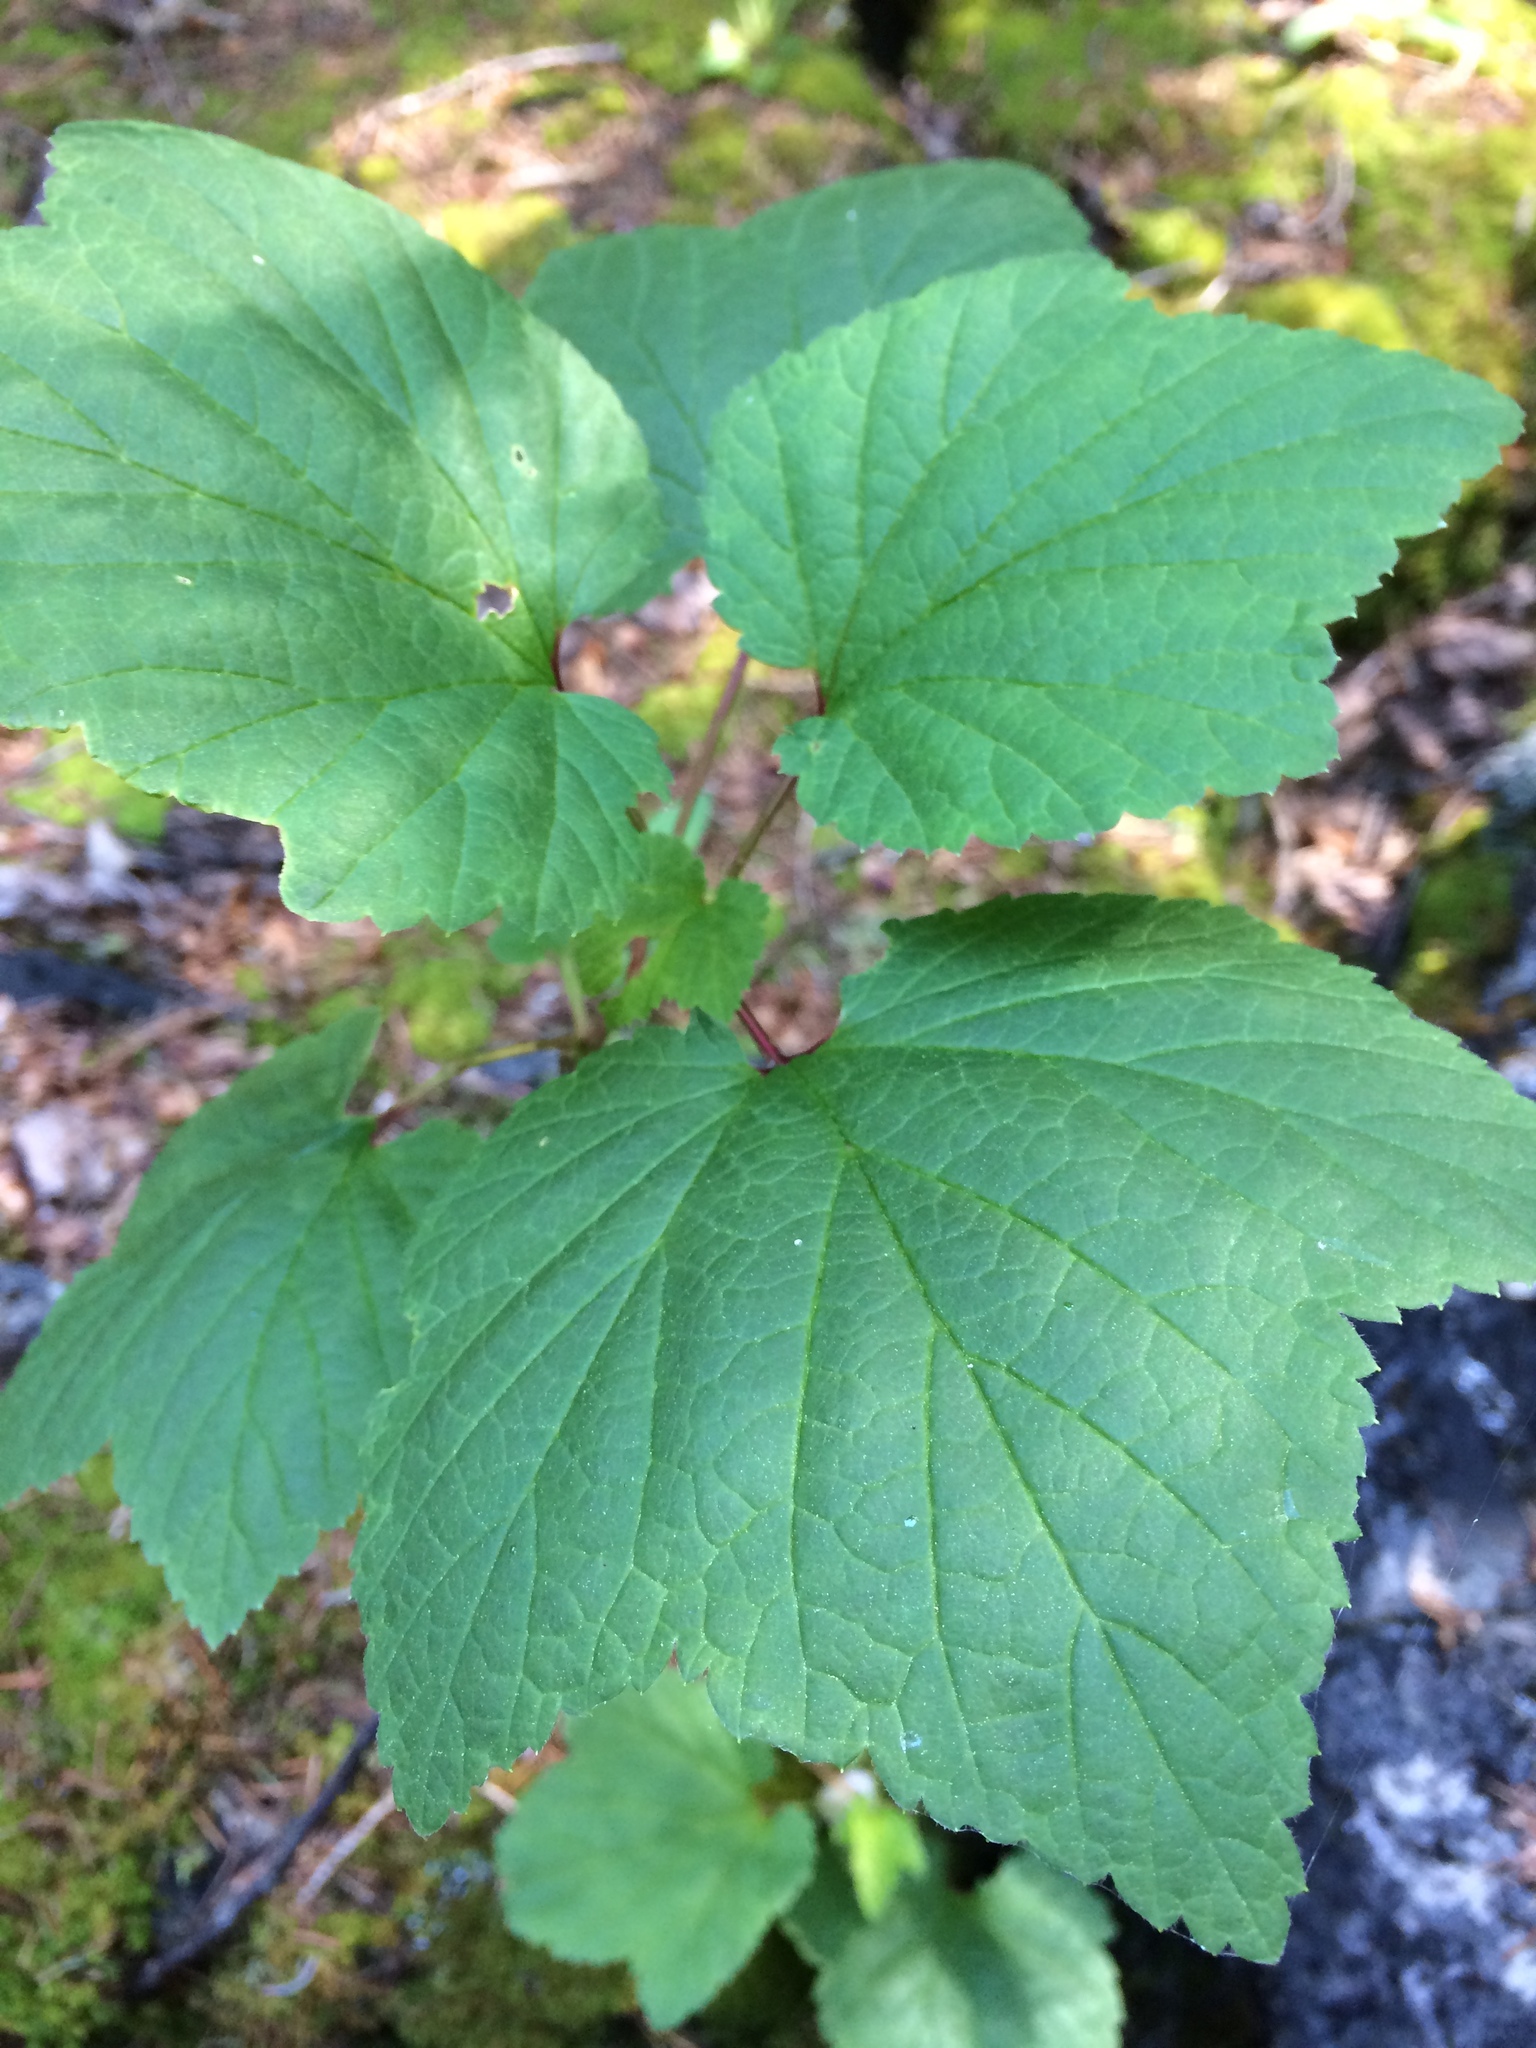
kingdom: Plantae
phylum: Tracheophyta
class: Magnoliopsida
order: Saxifragales
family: Grossulariaceae
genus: Ribes
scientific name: Ribes triste
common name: Swamp red currant
